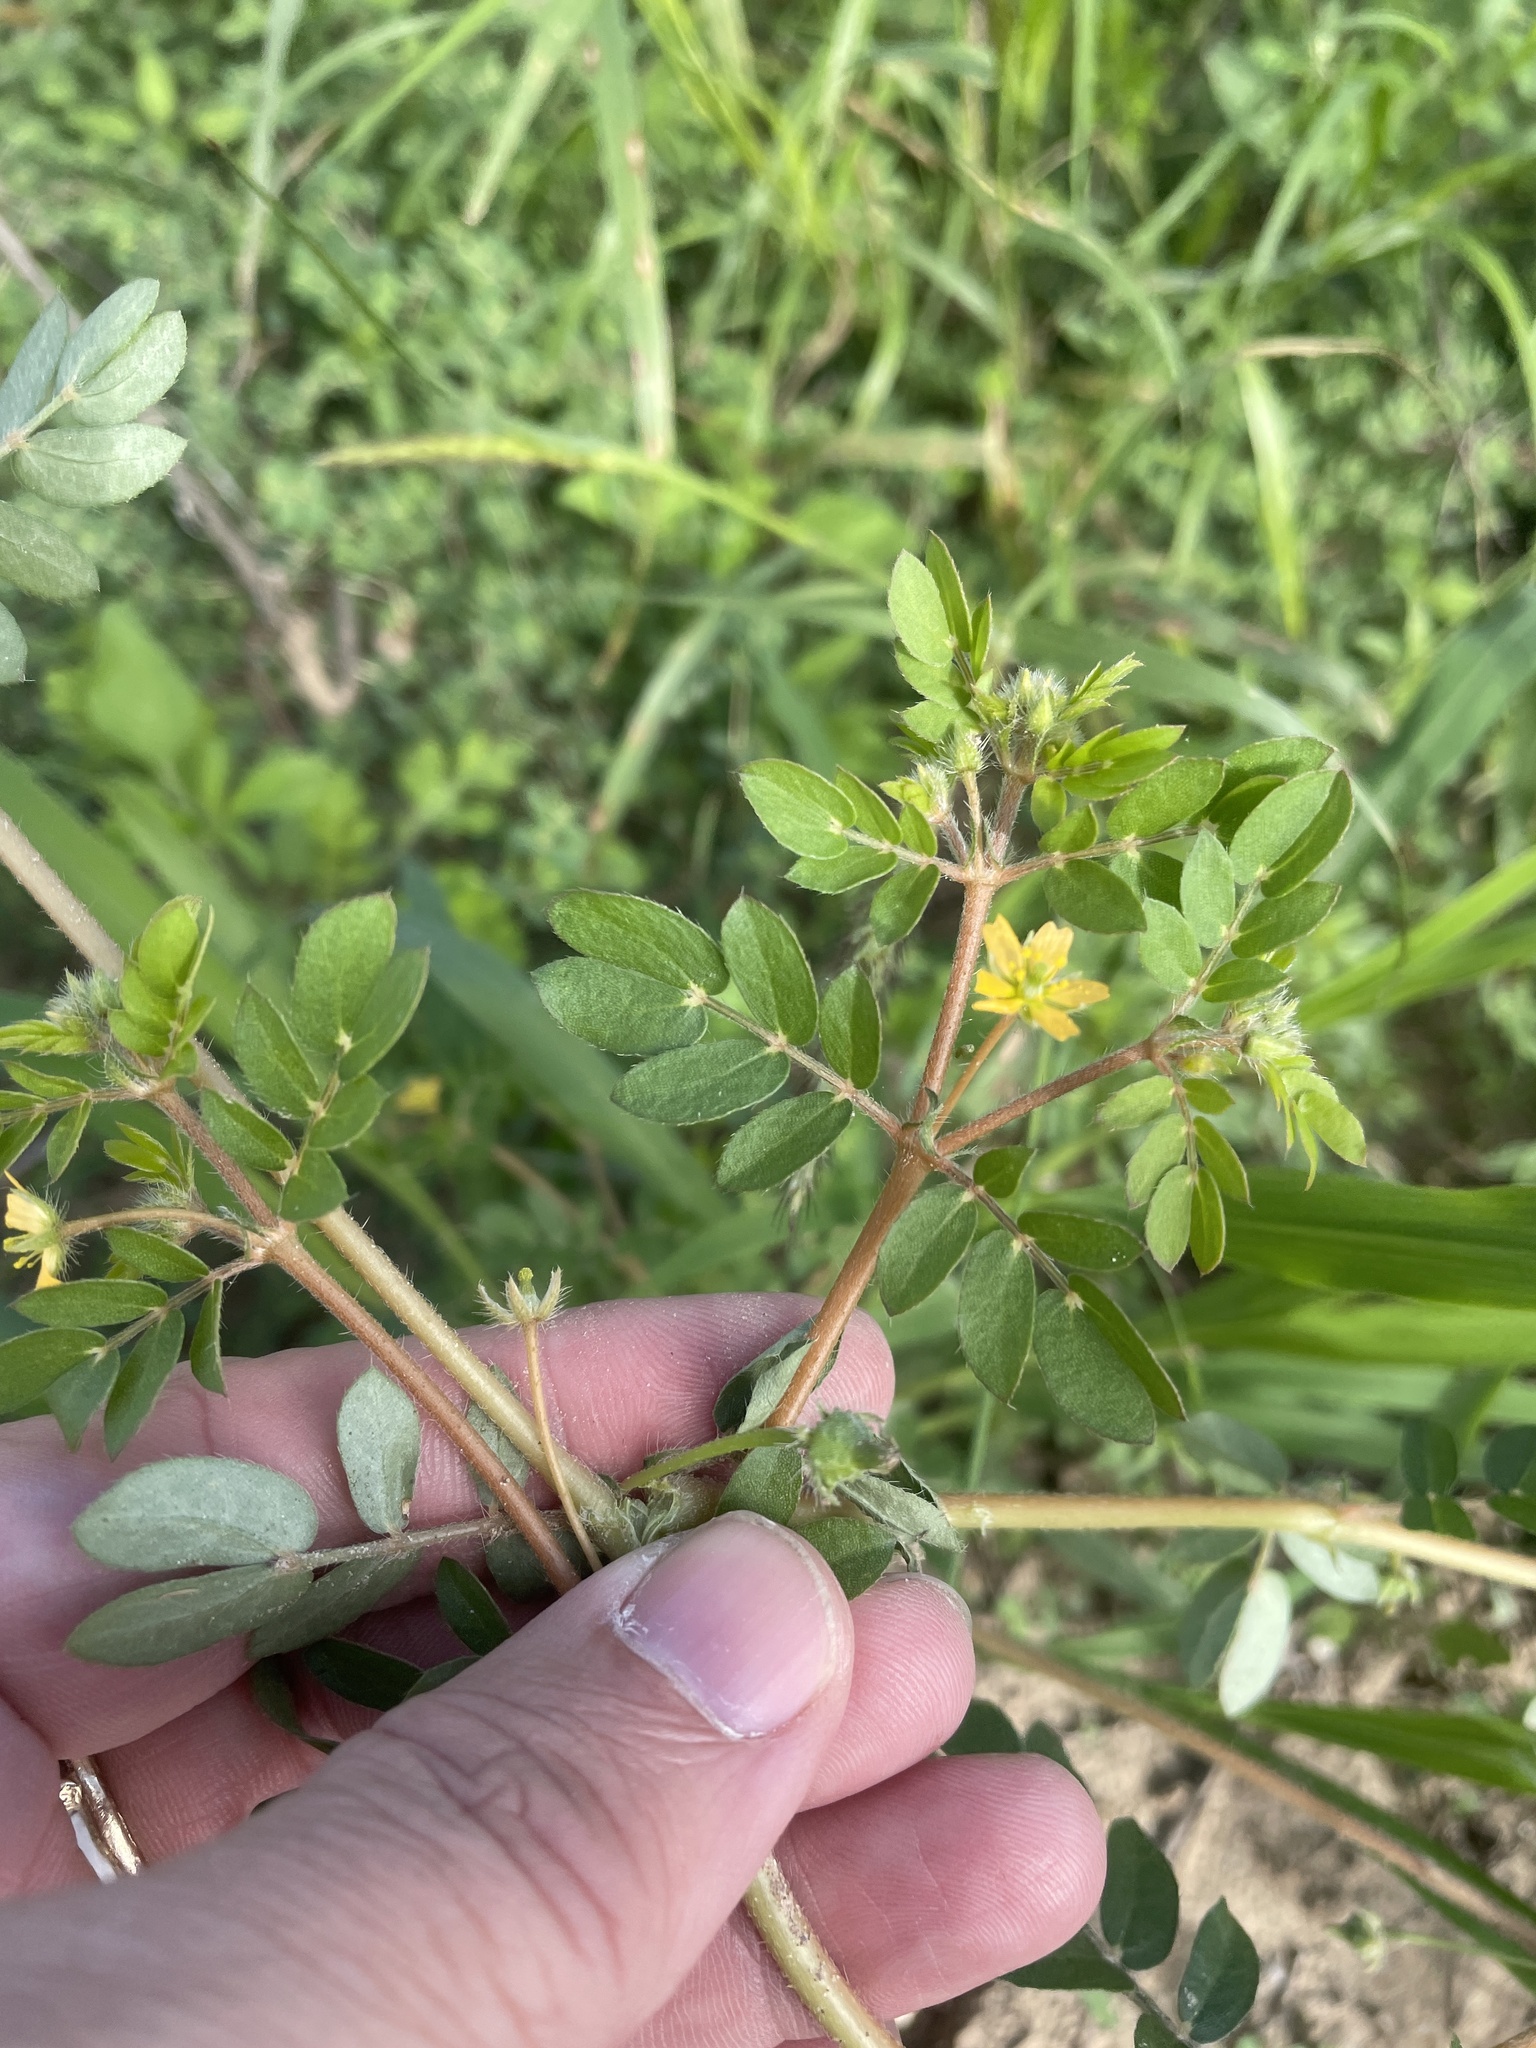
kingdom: Plantae
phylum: Tracheophyta
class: Magnoliopsida
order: Zygophyllales
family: Zygophyllaceae
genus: Kallstroemia
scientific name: Kallstroemia parviflora
